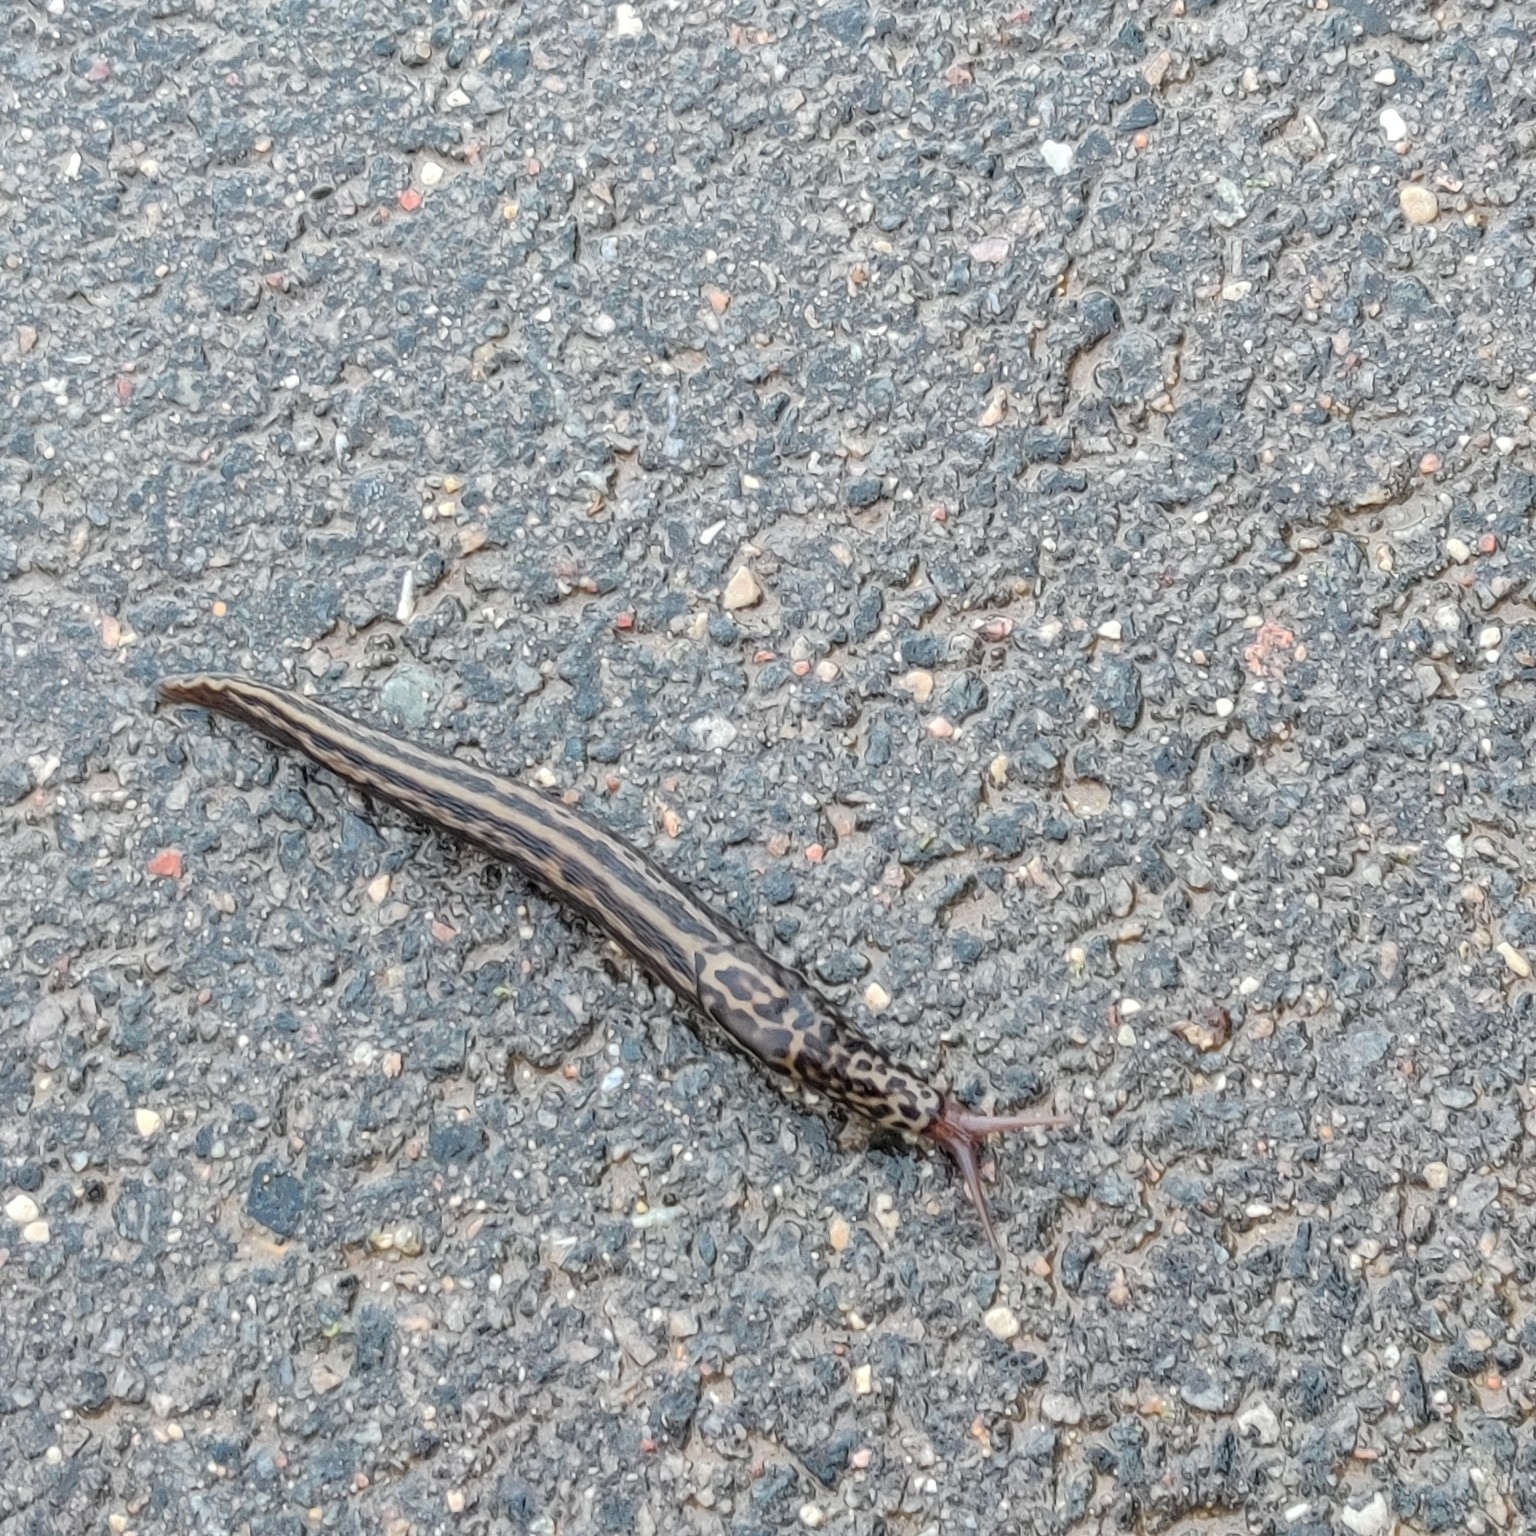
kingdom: Animalia
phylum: Mollusca
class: Gastropoda
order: Stylommatophora
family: Limacidae
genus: Limax
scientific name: Limax maximus
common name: Great grey slug
